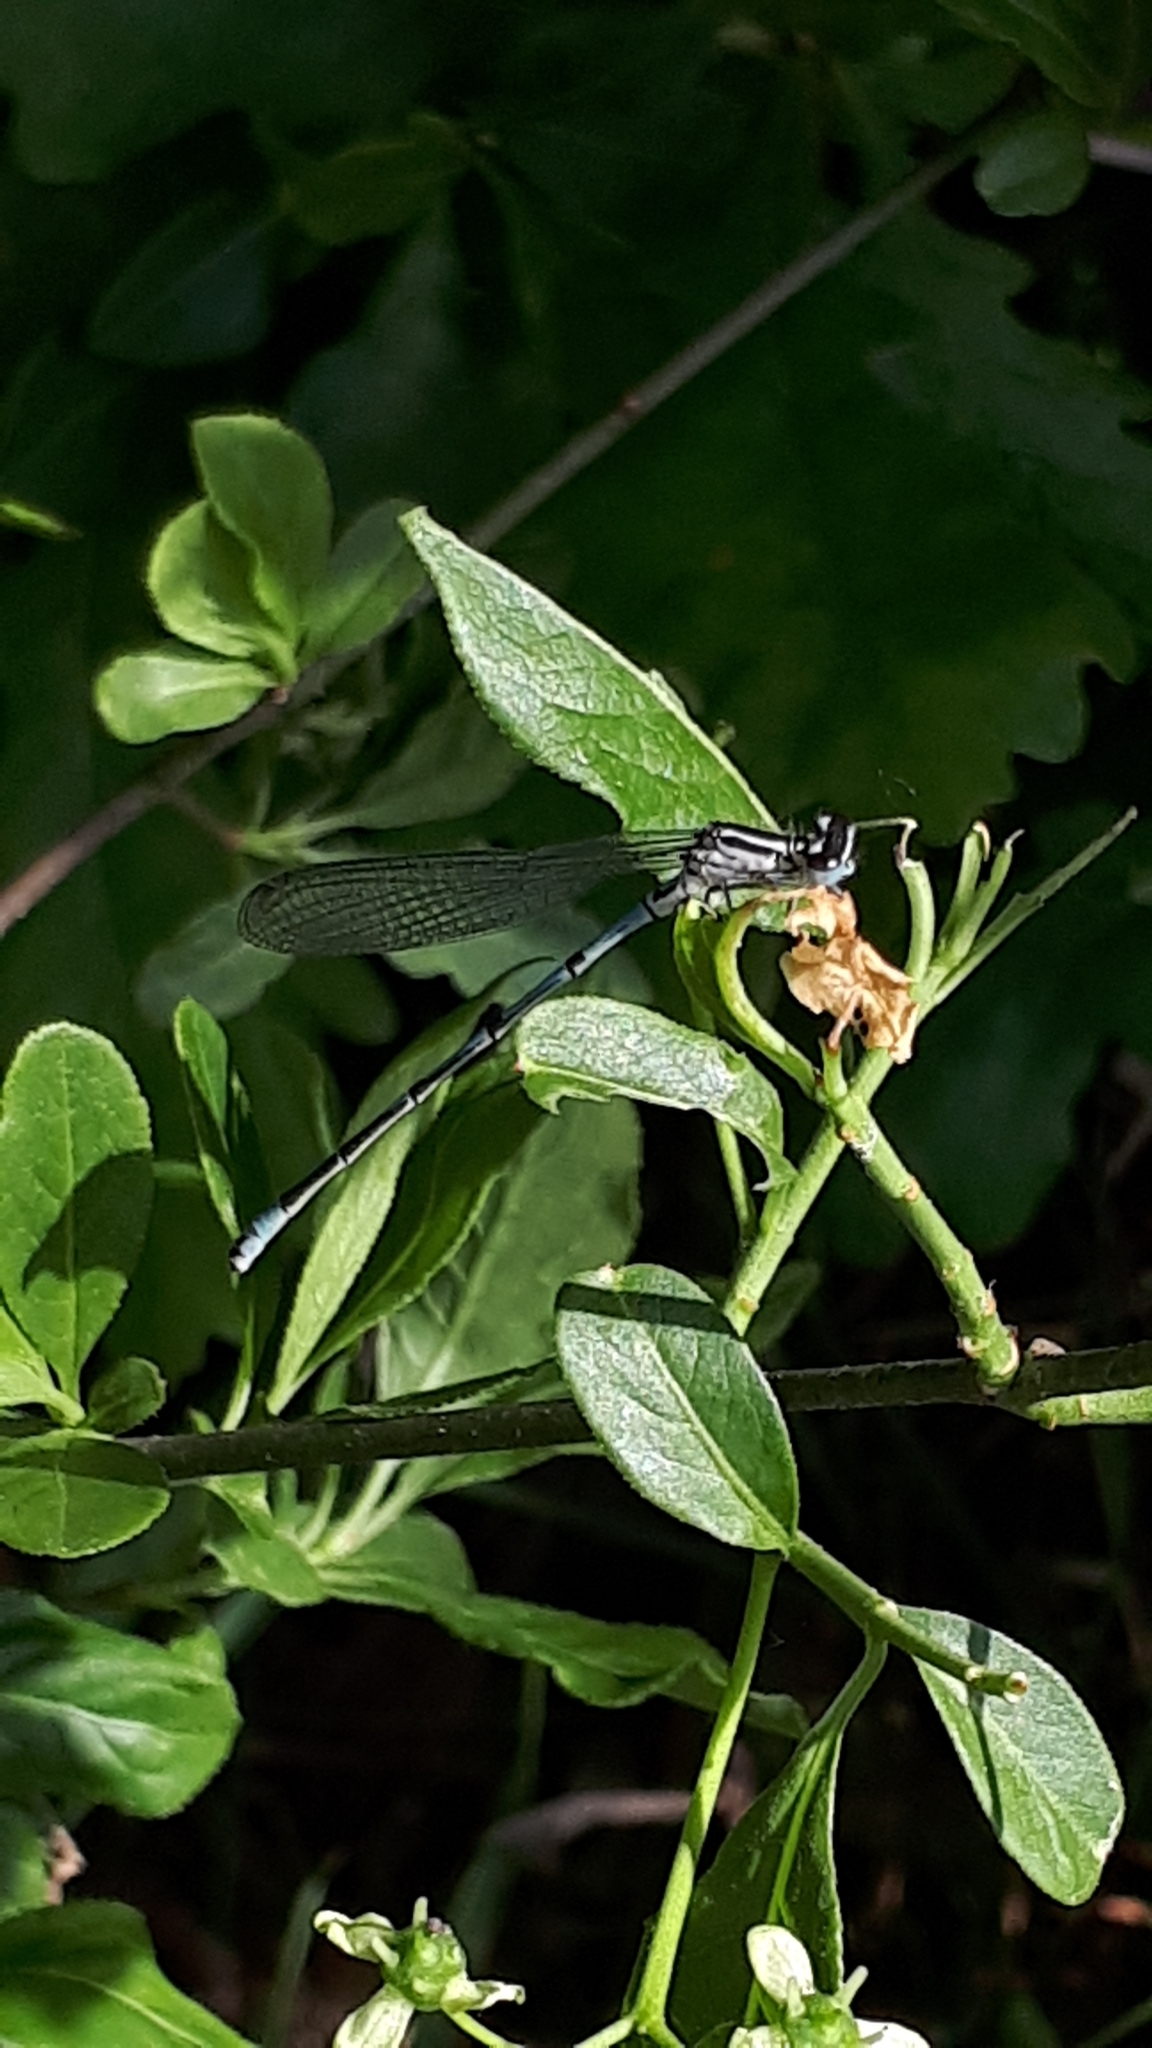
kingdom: Animalia
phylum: Arthropoda
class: Insecta
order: Odonata
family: Coenagrionidae
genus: Coenagrion
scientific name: Coenagrion puella
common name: Azure damselfly
